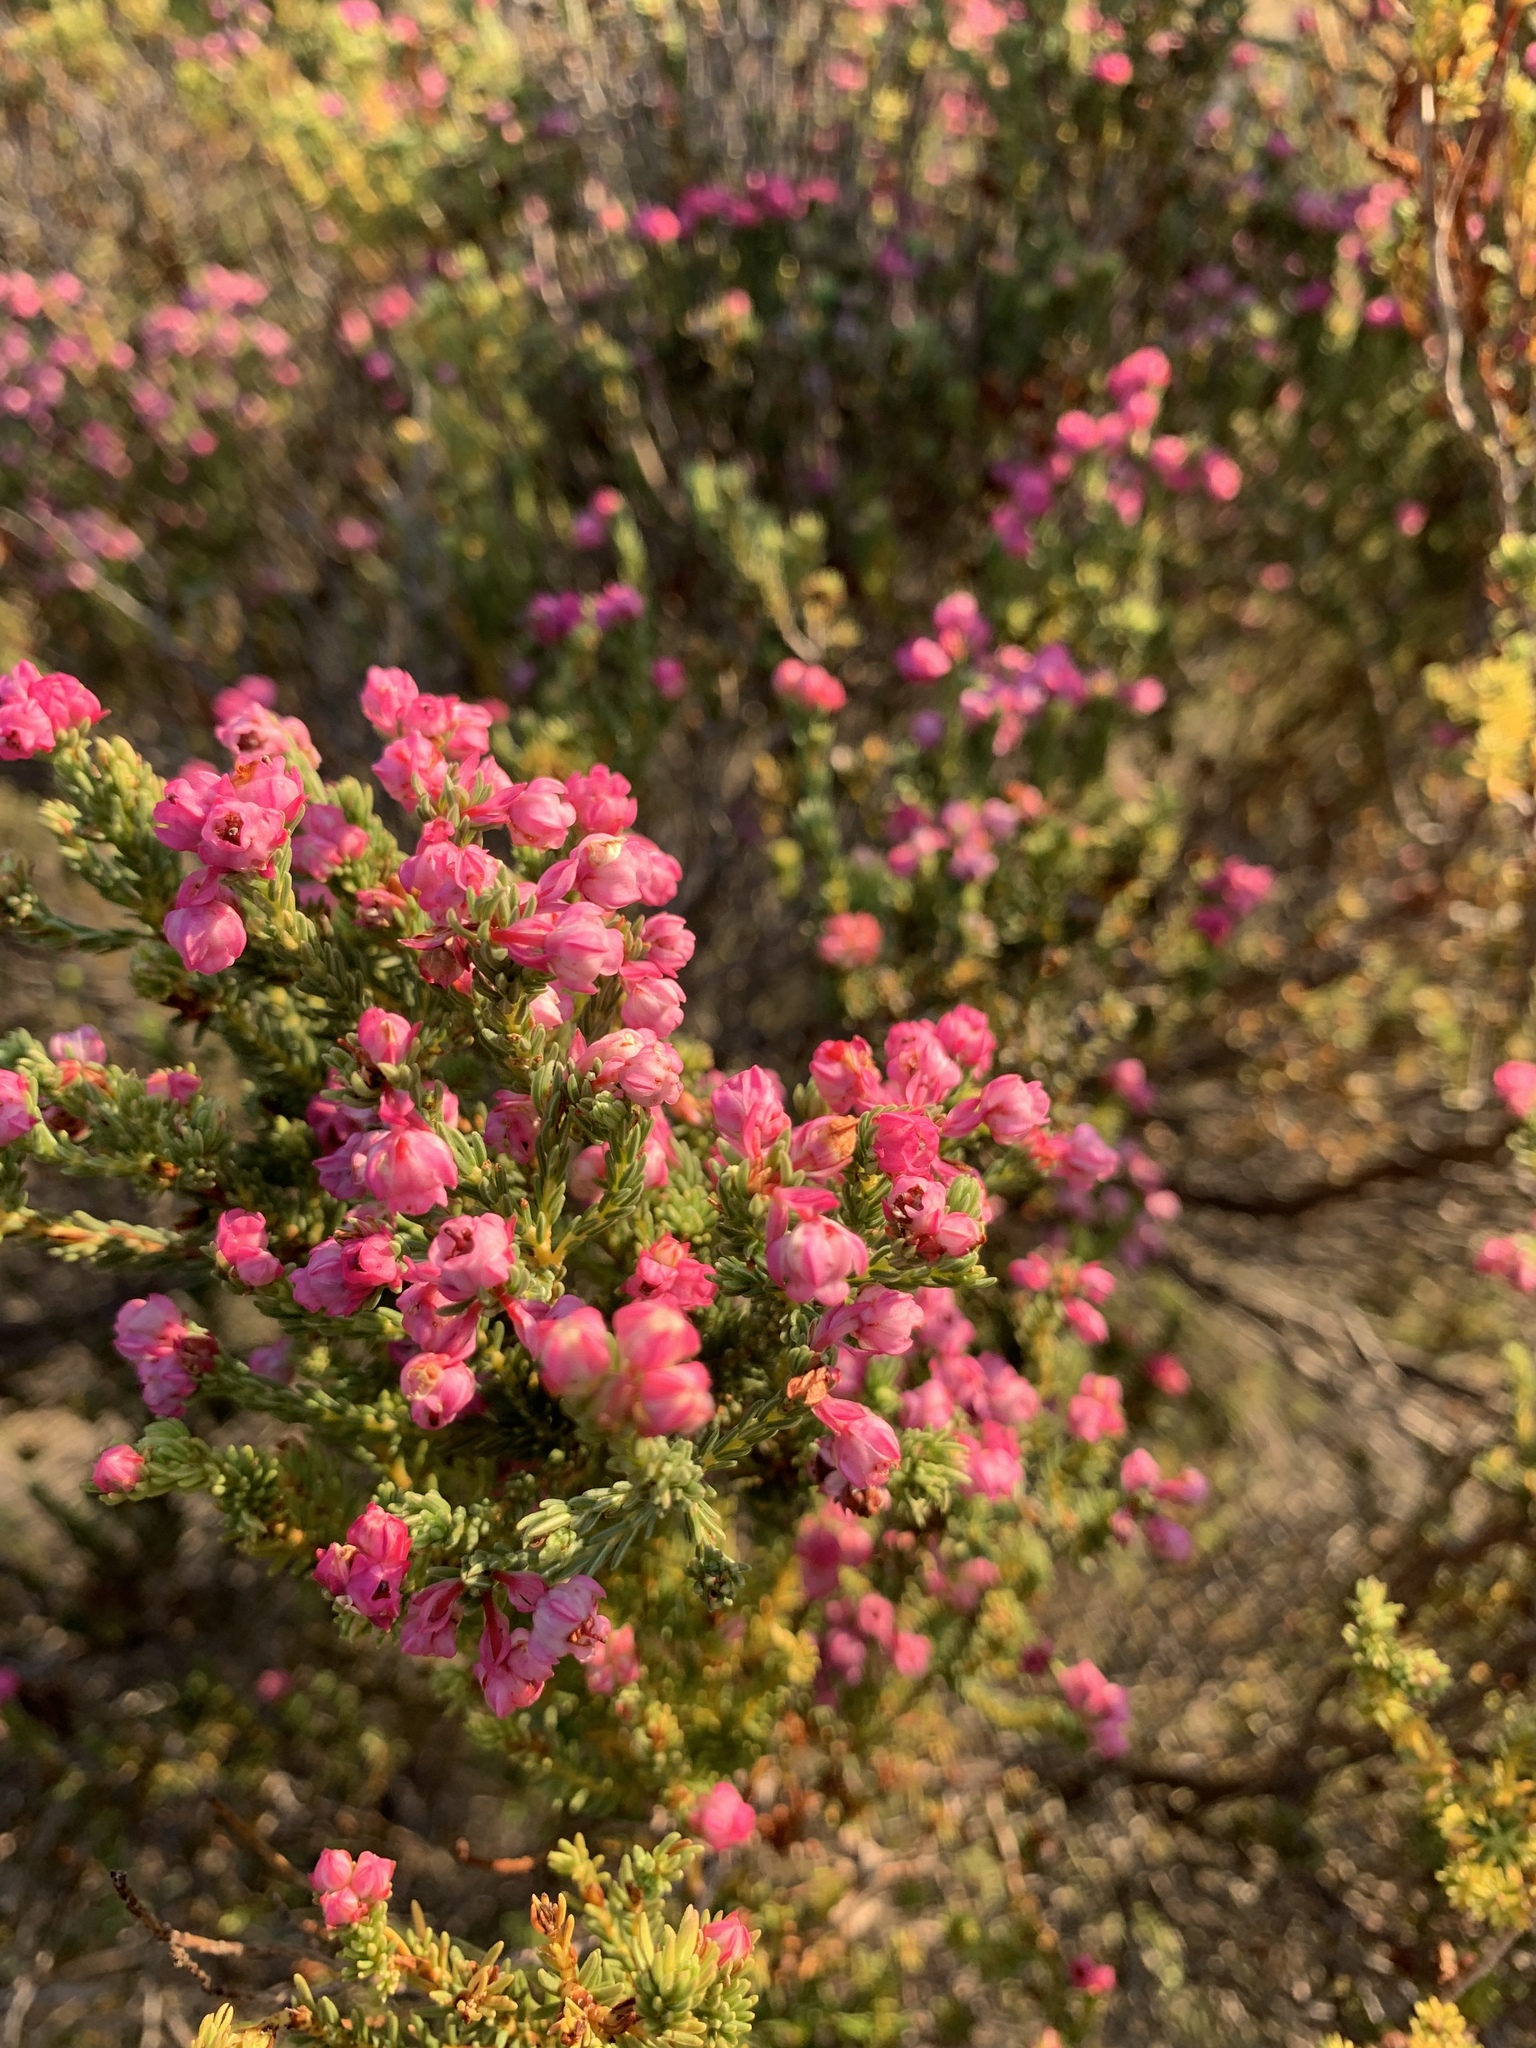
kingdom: Plantae
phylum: Tracheophyta
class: Magnoliopsida
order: Ericales
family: Ericaceae
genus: Erica
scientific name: Erica baccans
